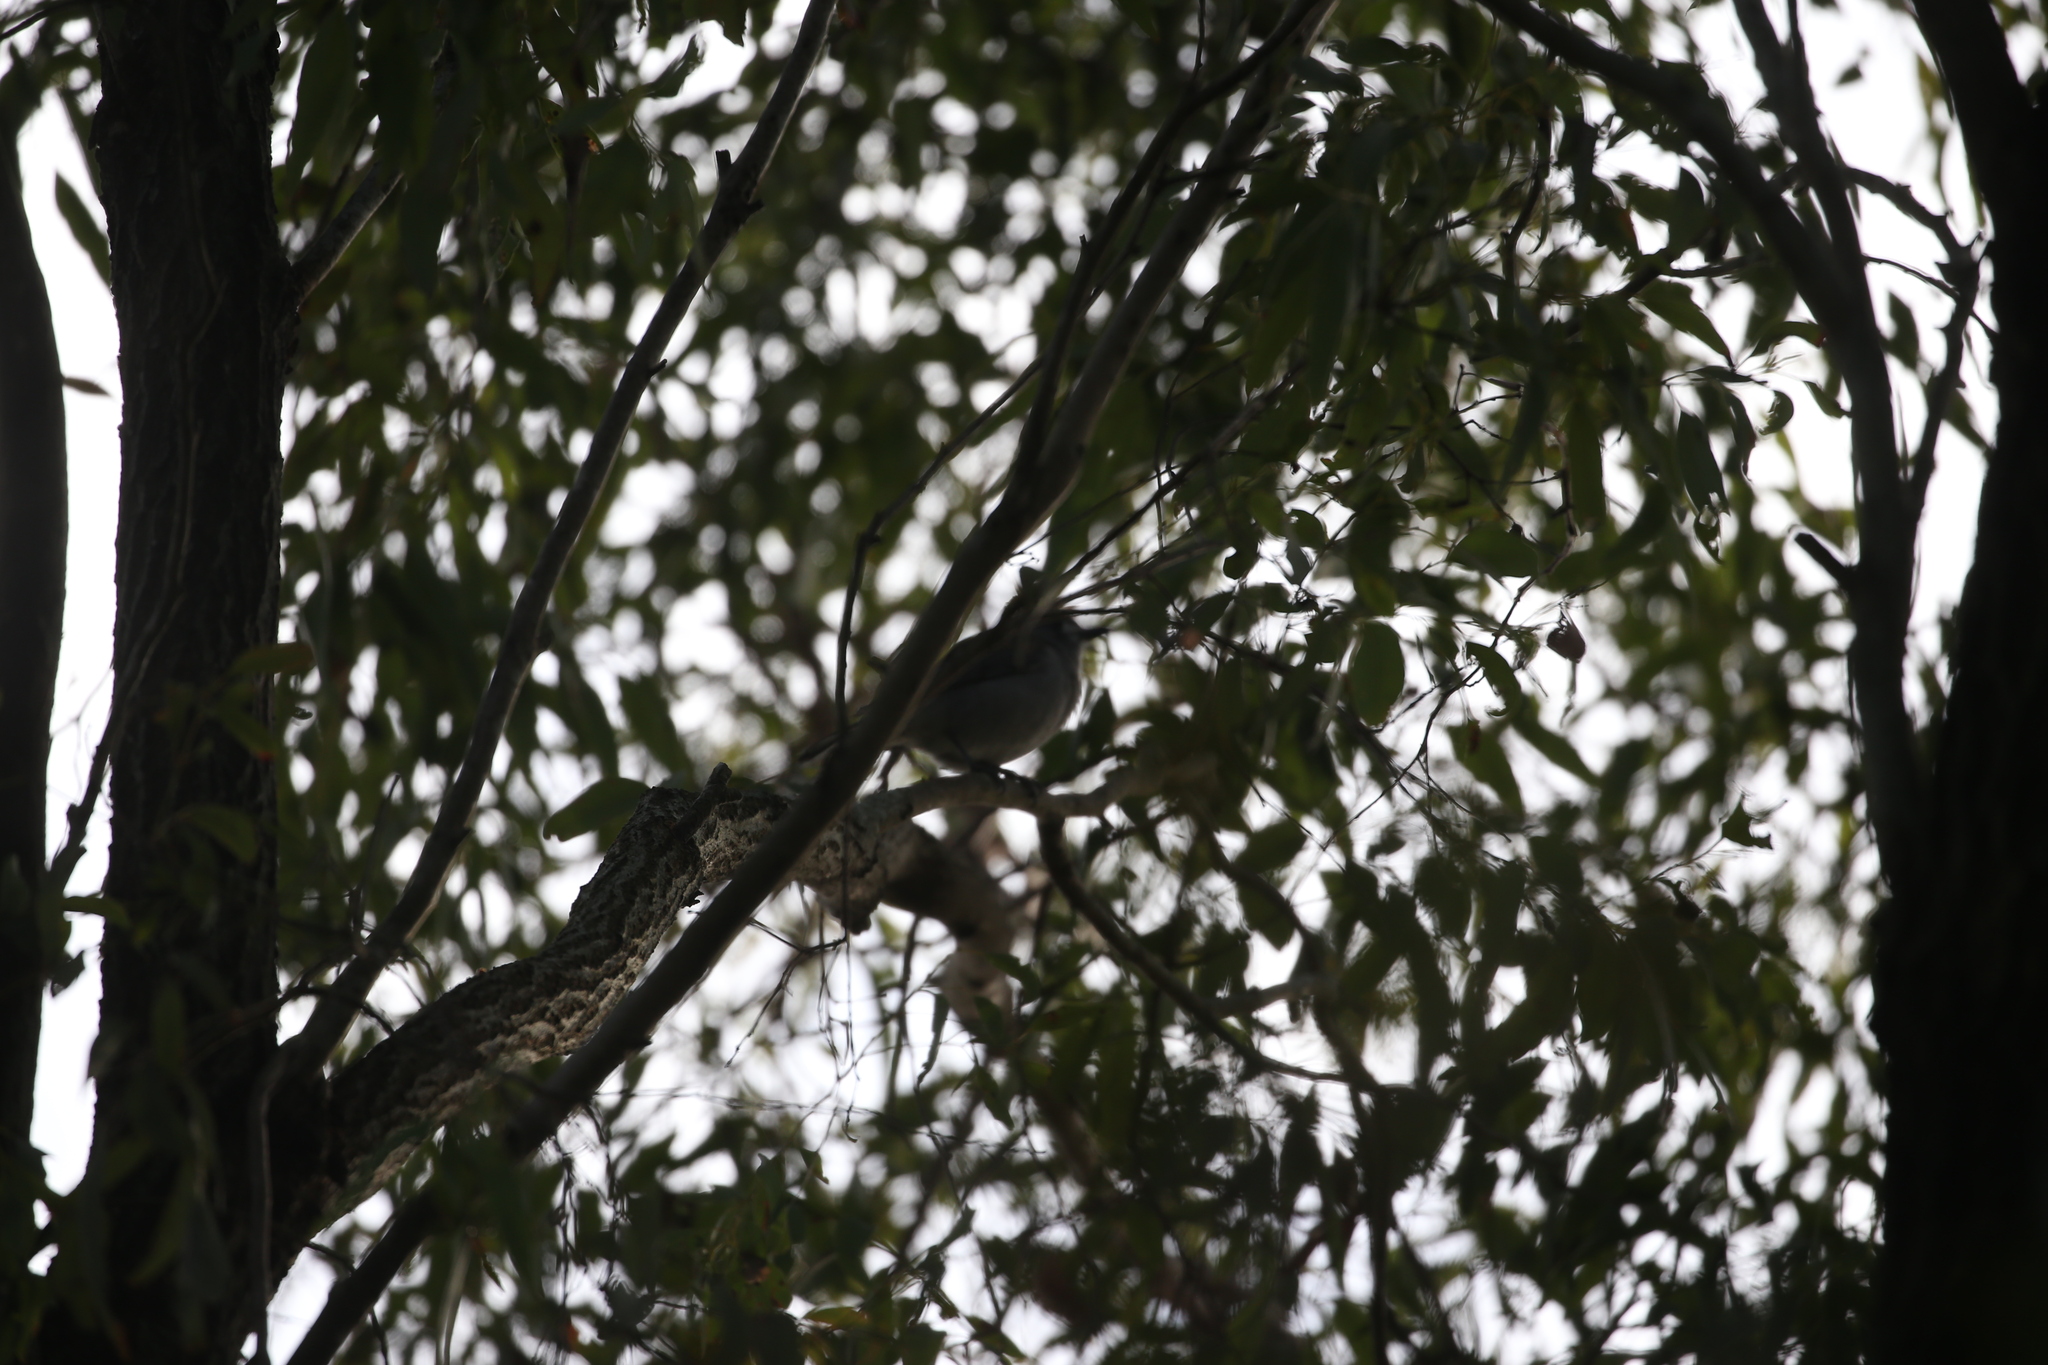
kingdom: Animalia
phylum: Chordata
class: Aves
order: Passeriformes
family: Pachycephalidae
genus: Colluricincla
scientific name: Colluricincla harmonica
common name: Grey shrikethrush
